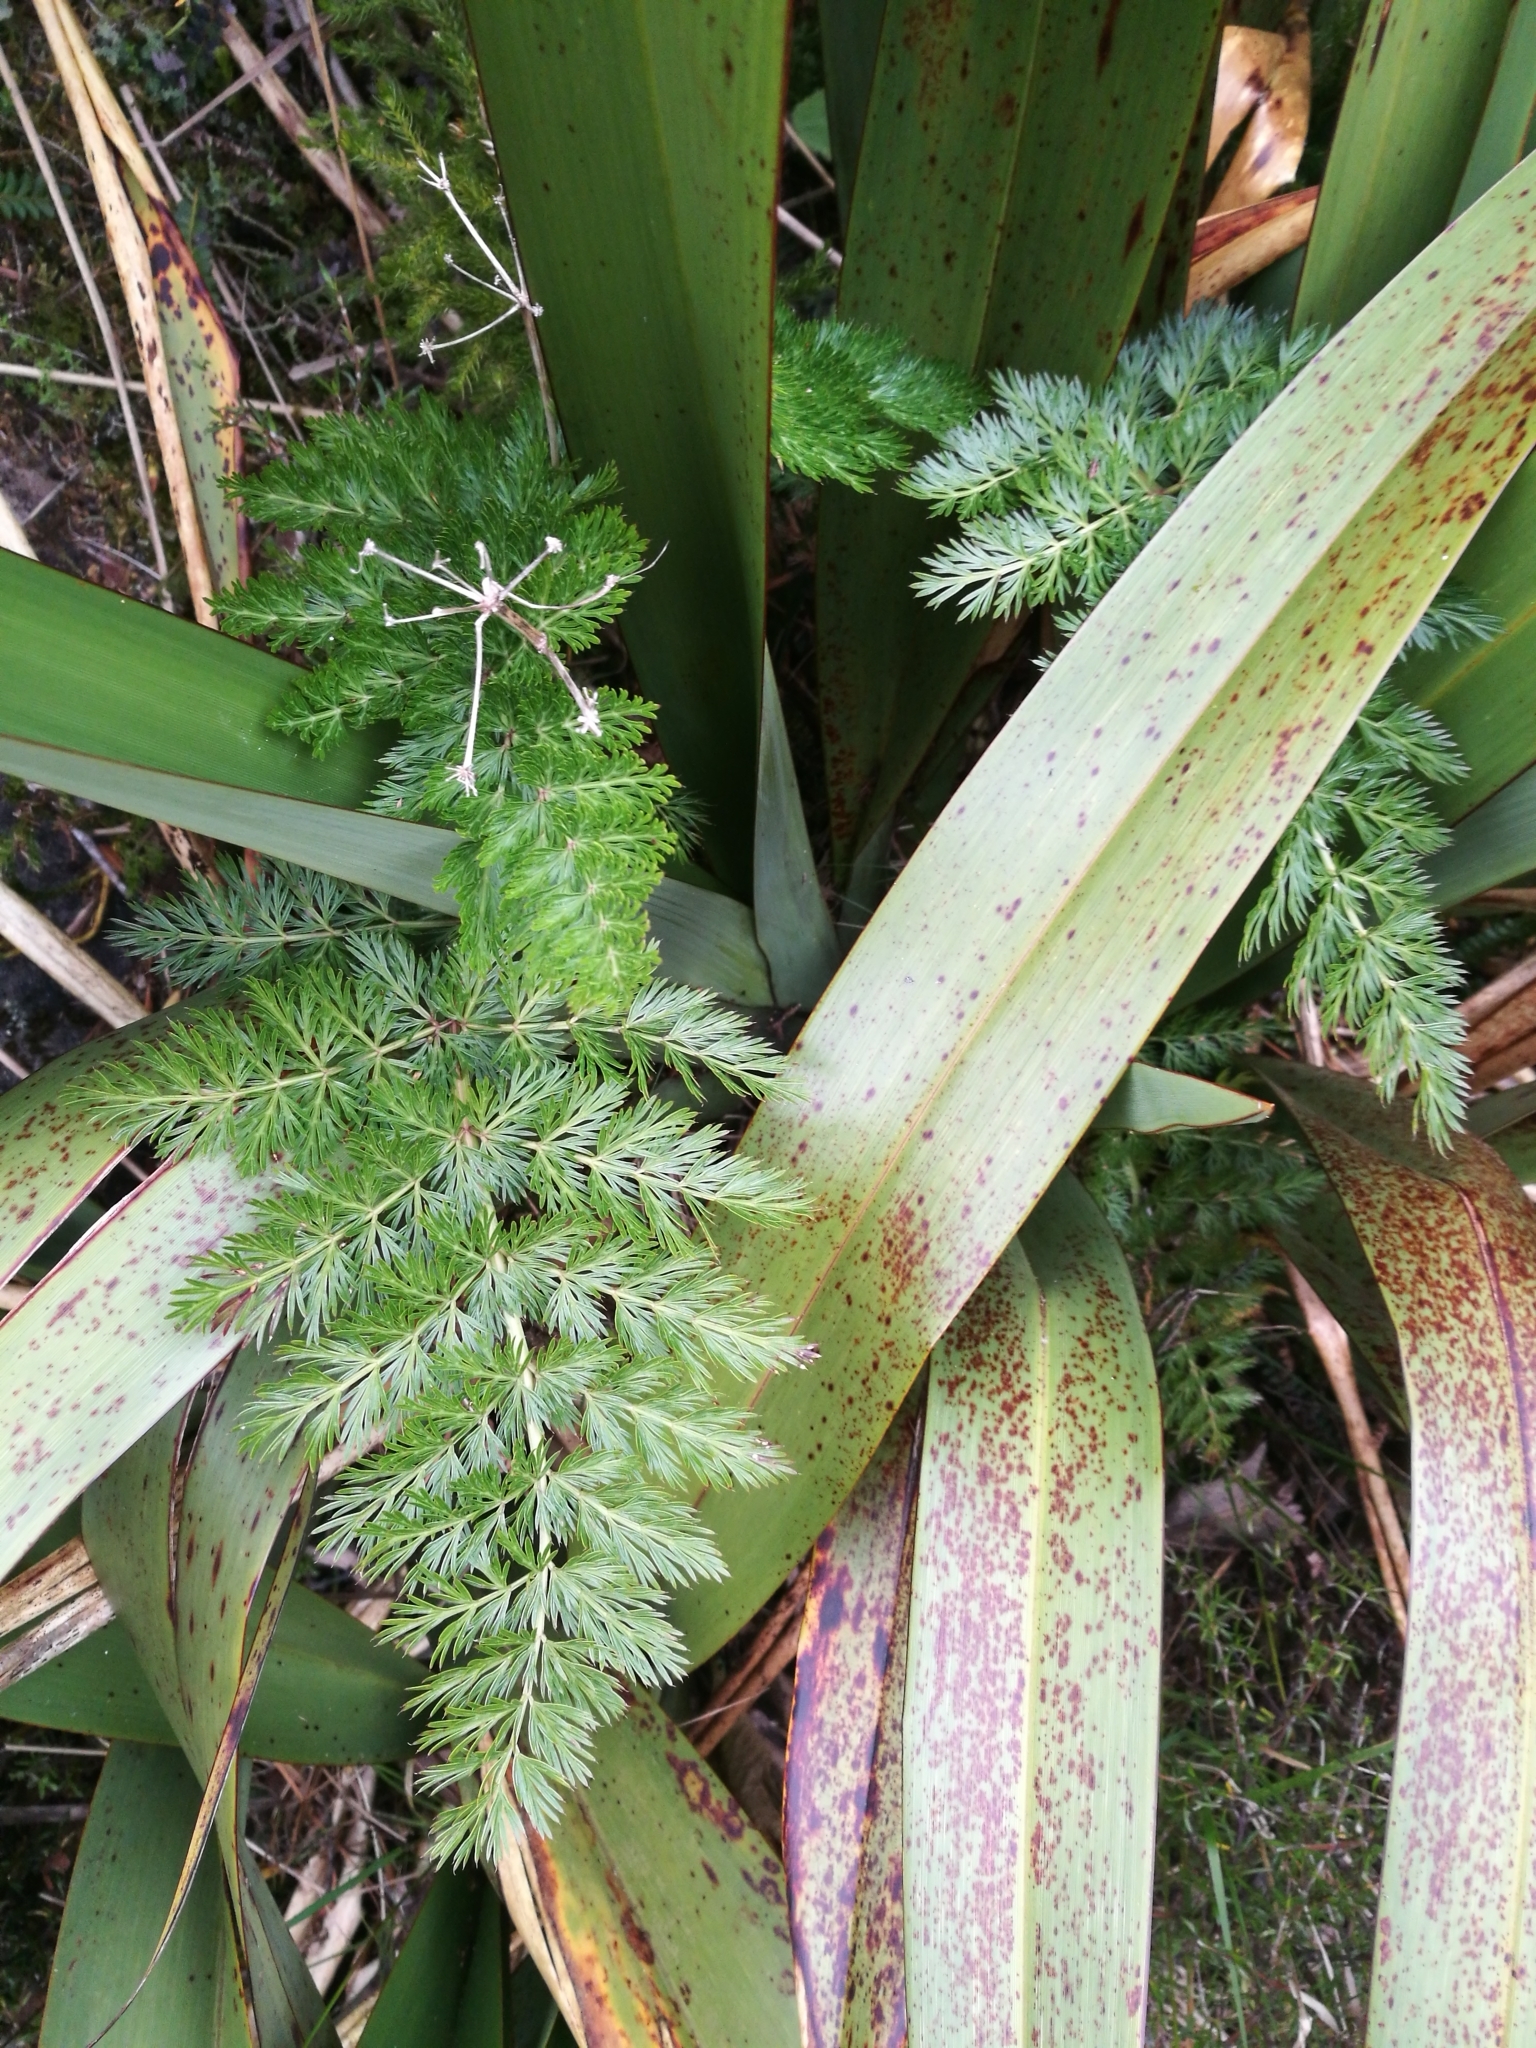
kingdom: Plantae
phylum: Tracheophyta
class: Magnoliopsida
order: Apiales
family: Apiaceae
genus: Anisotome
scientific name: Anisotome haastii
